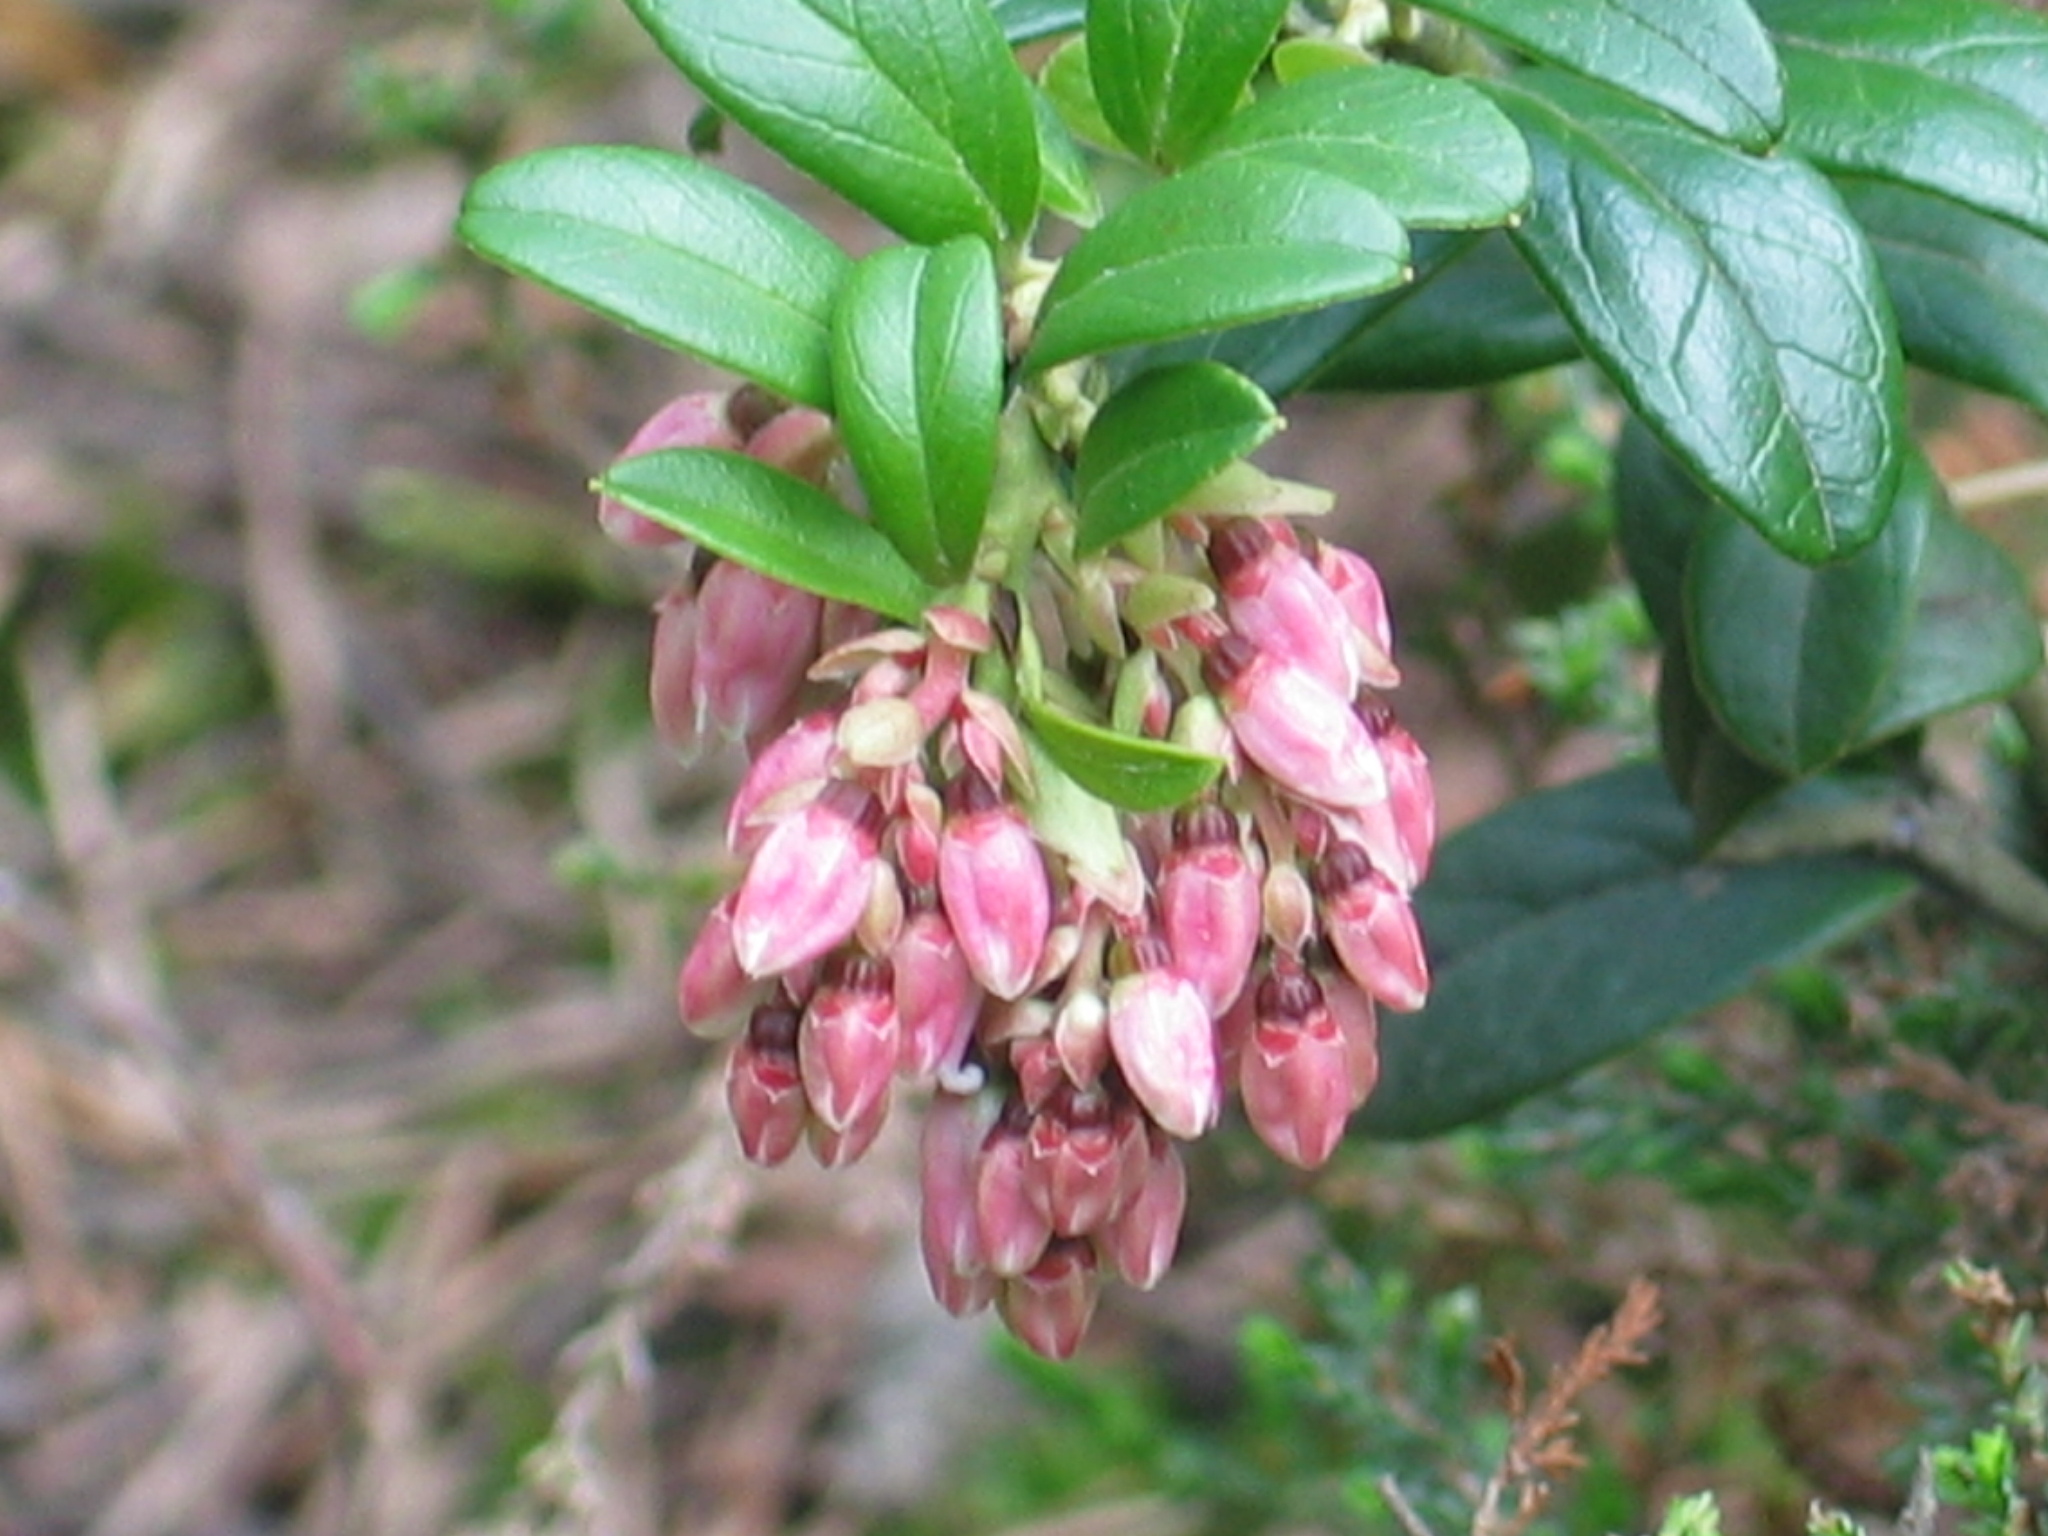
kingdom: Plantae
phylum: Tracheophyta
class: Magnoliopsida
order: Ericales
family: Ericaceae
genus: Vaccinium
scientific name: Vaccinium vitis-idaea
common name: Cowberry
